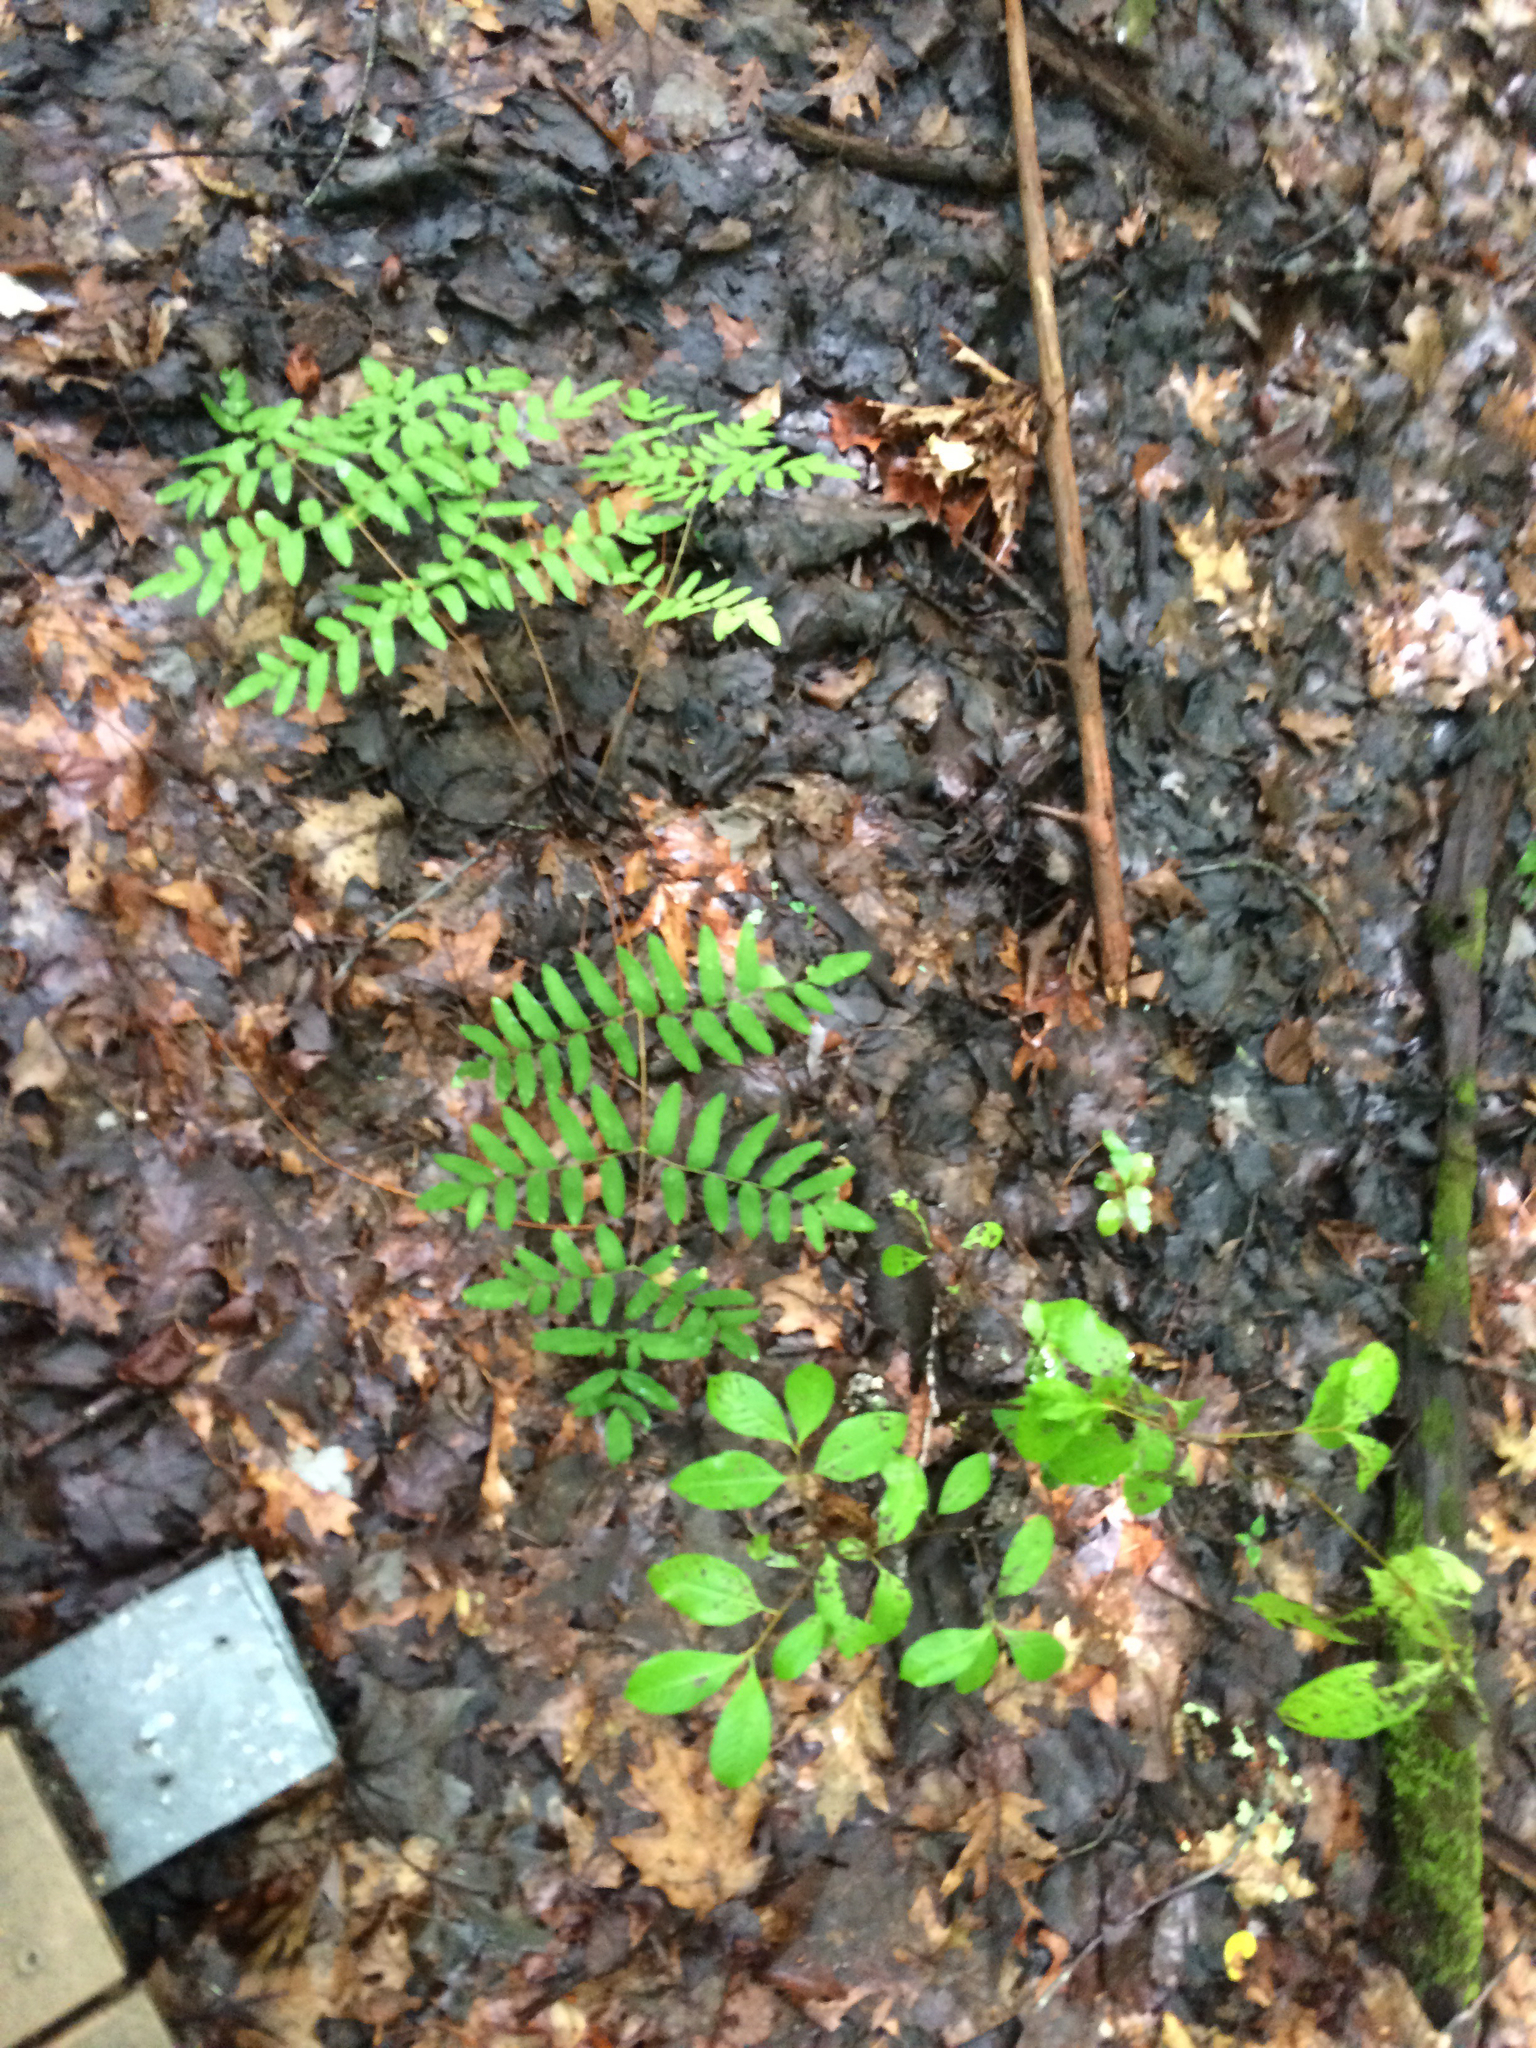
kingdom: Plantae
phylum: Tracheophyta
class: Polypodiopsida
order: Osmundales
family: Osmundaceae
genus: Osmunda
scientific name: Osmunda spectabilis
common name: American royal fern
